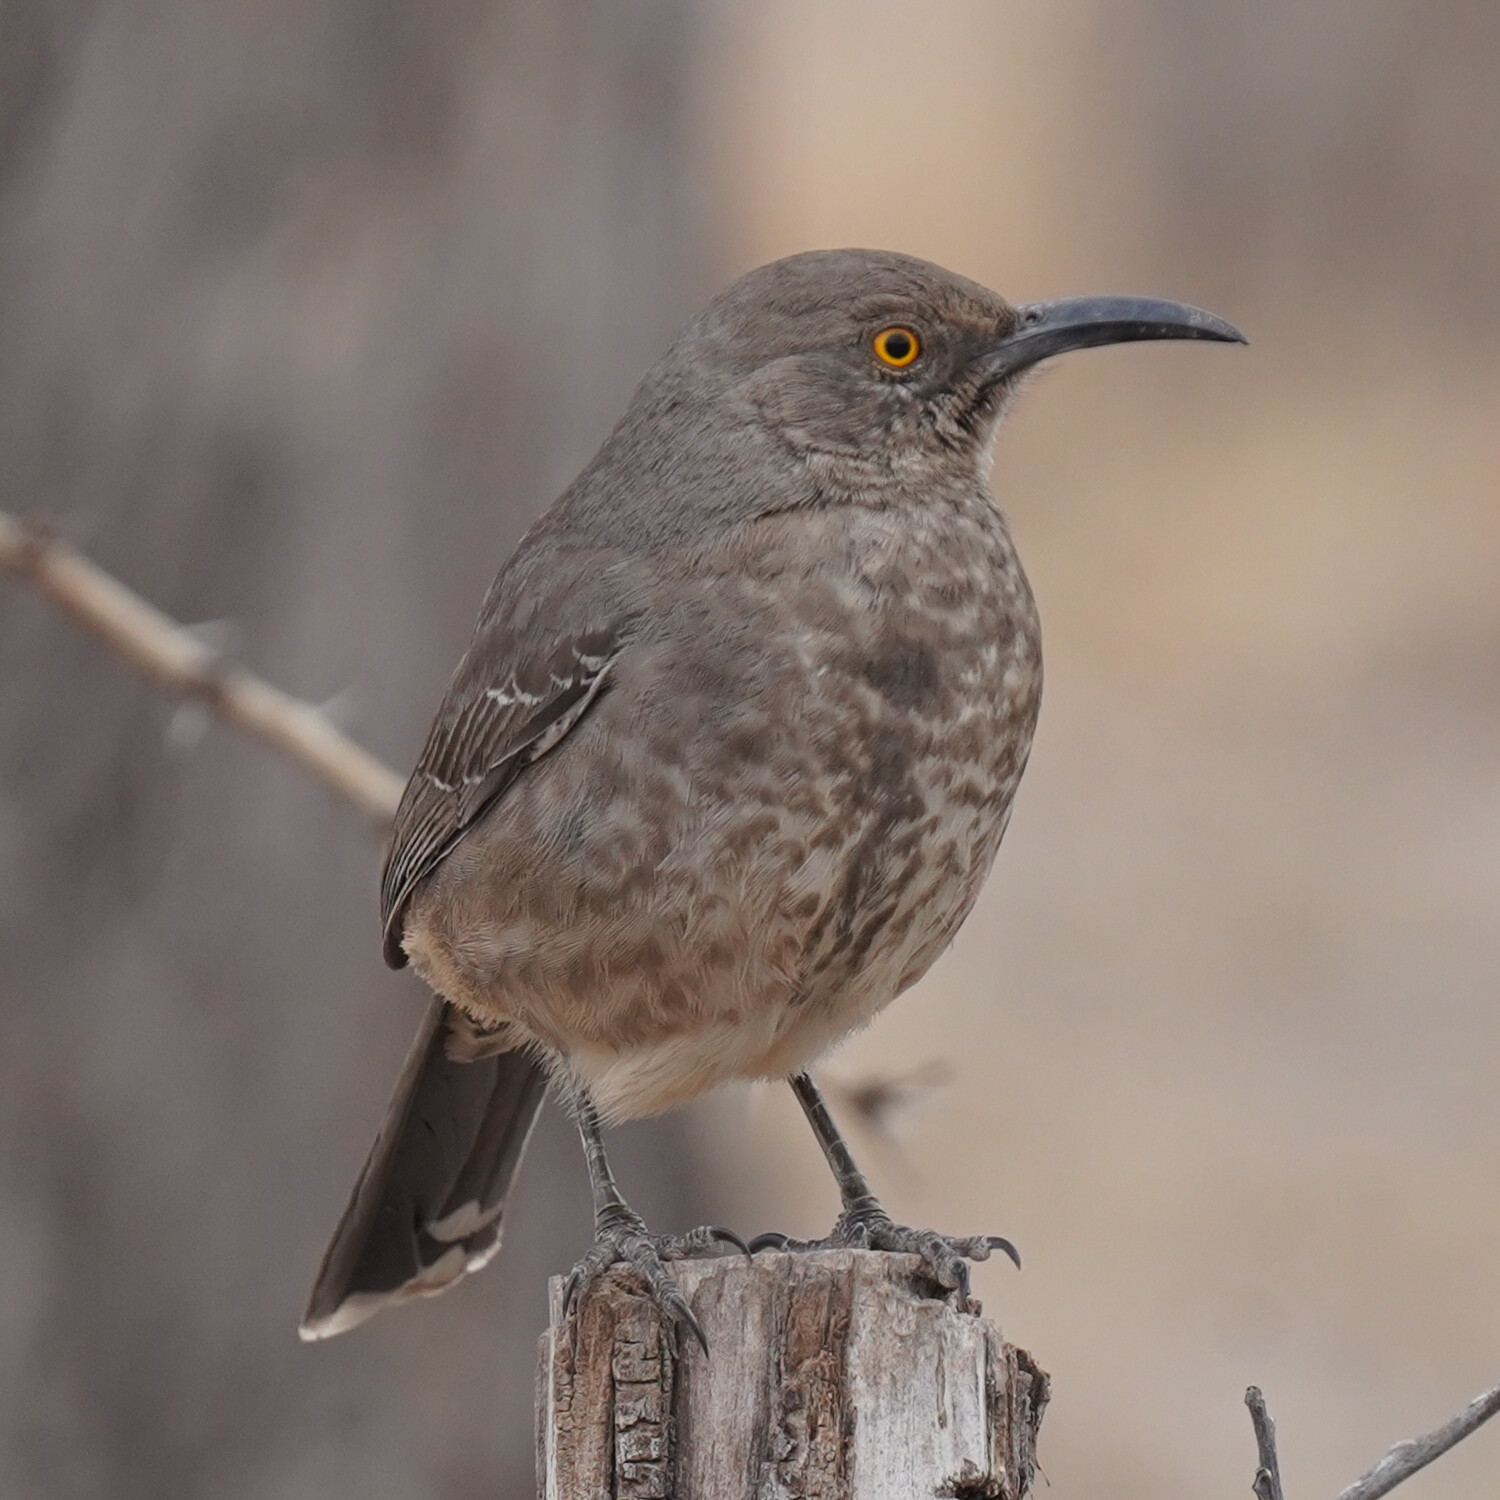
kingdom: Animalia
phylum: Chordata
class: Aves
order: Passeriformes
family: Mimidae
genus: Toxostoma
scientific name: Toxostoma curvirostre
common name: Curve-billed thrasher
